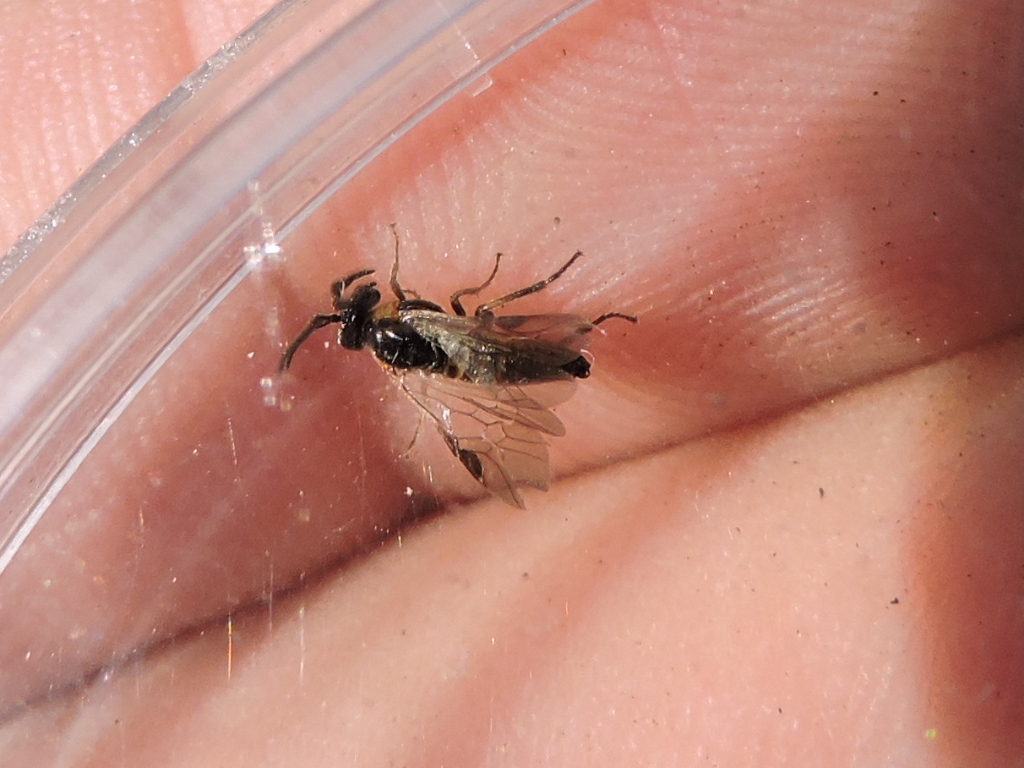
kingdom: Animalia
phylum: Arthropoda
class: Insecta
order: Hymenoptera
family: Argidae
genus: Schizocerella
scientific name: Schizocerella pilicornis
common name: Purslane sawfly
